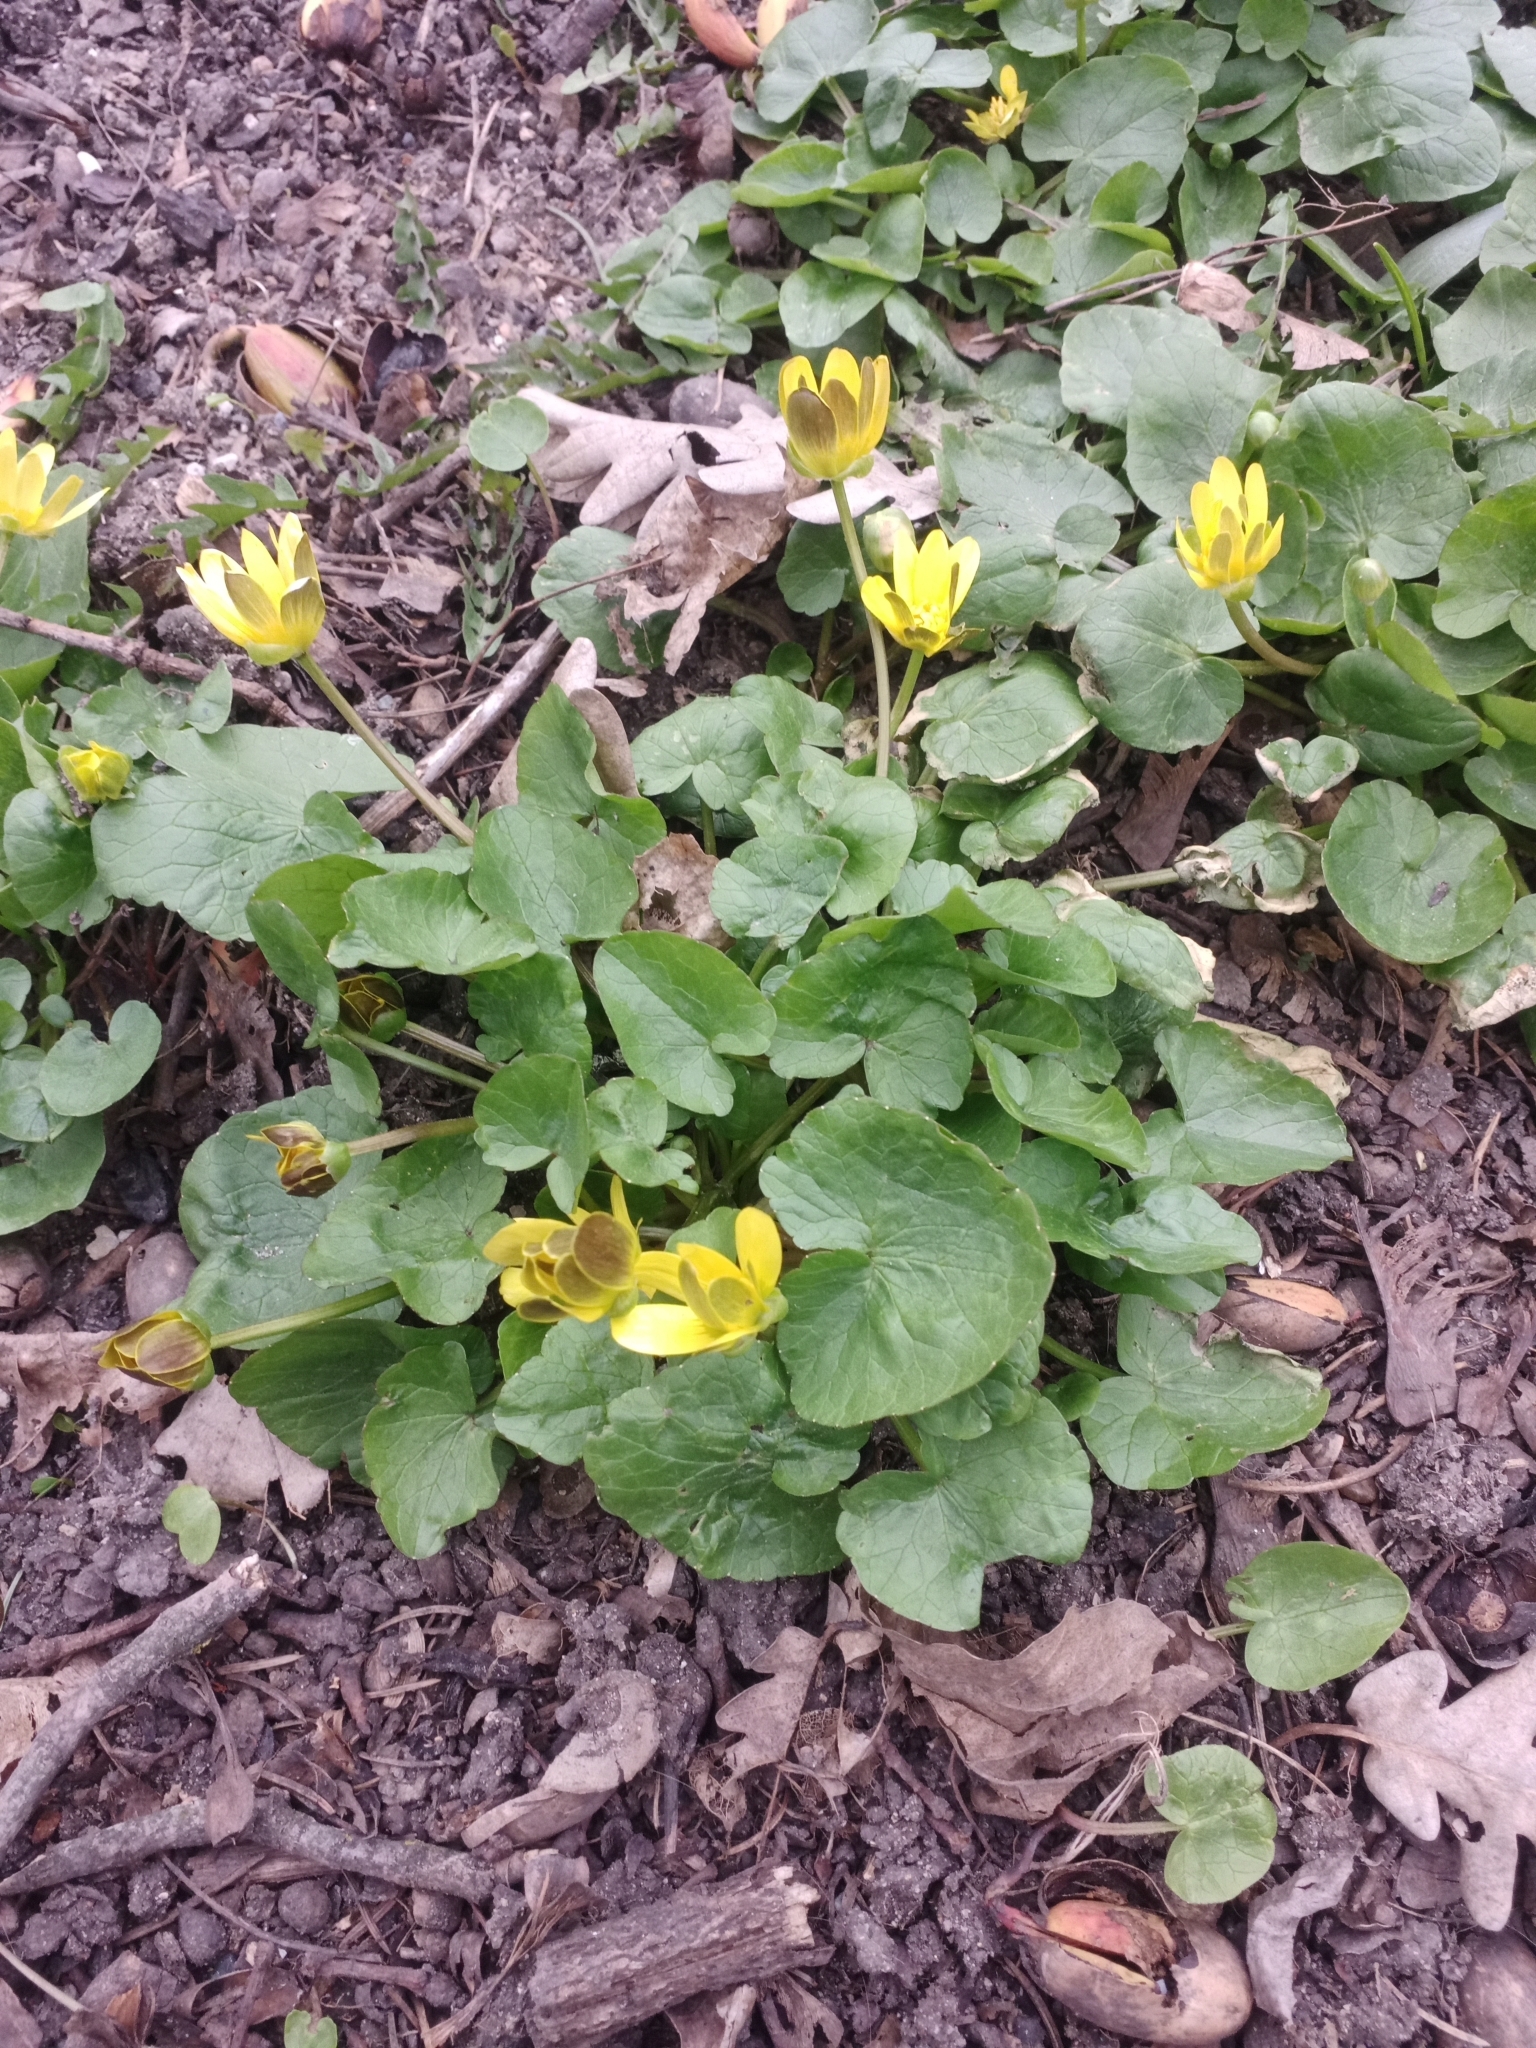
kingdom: Plantae
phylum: Tracheophyta
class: Magnoliopsida
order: Ranunculales
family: Ranunculaceae
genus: Ficaria
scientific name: Ficaria verna
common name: Lesser celandine
